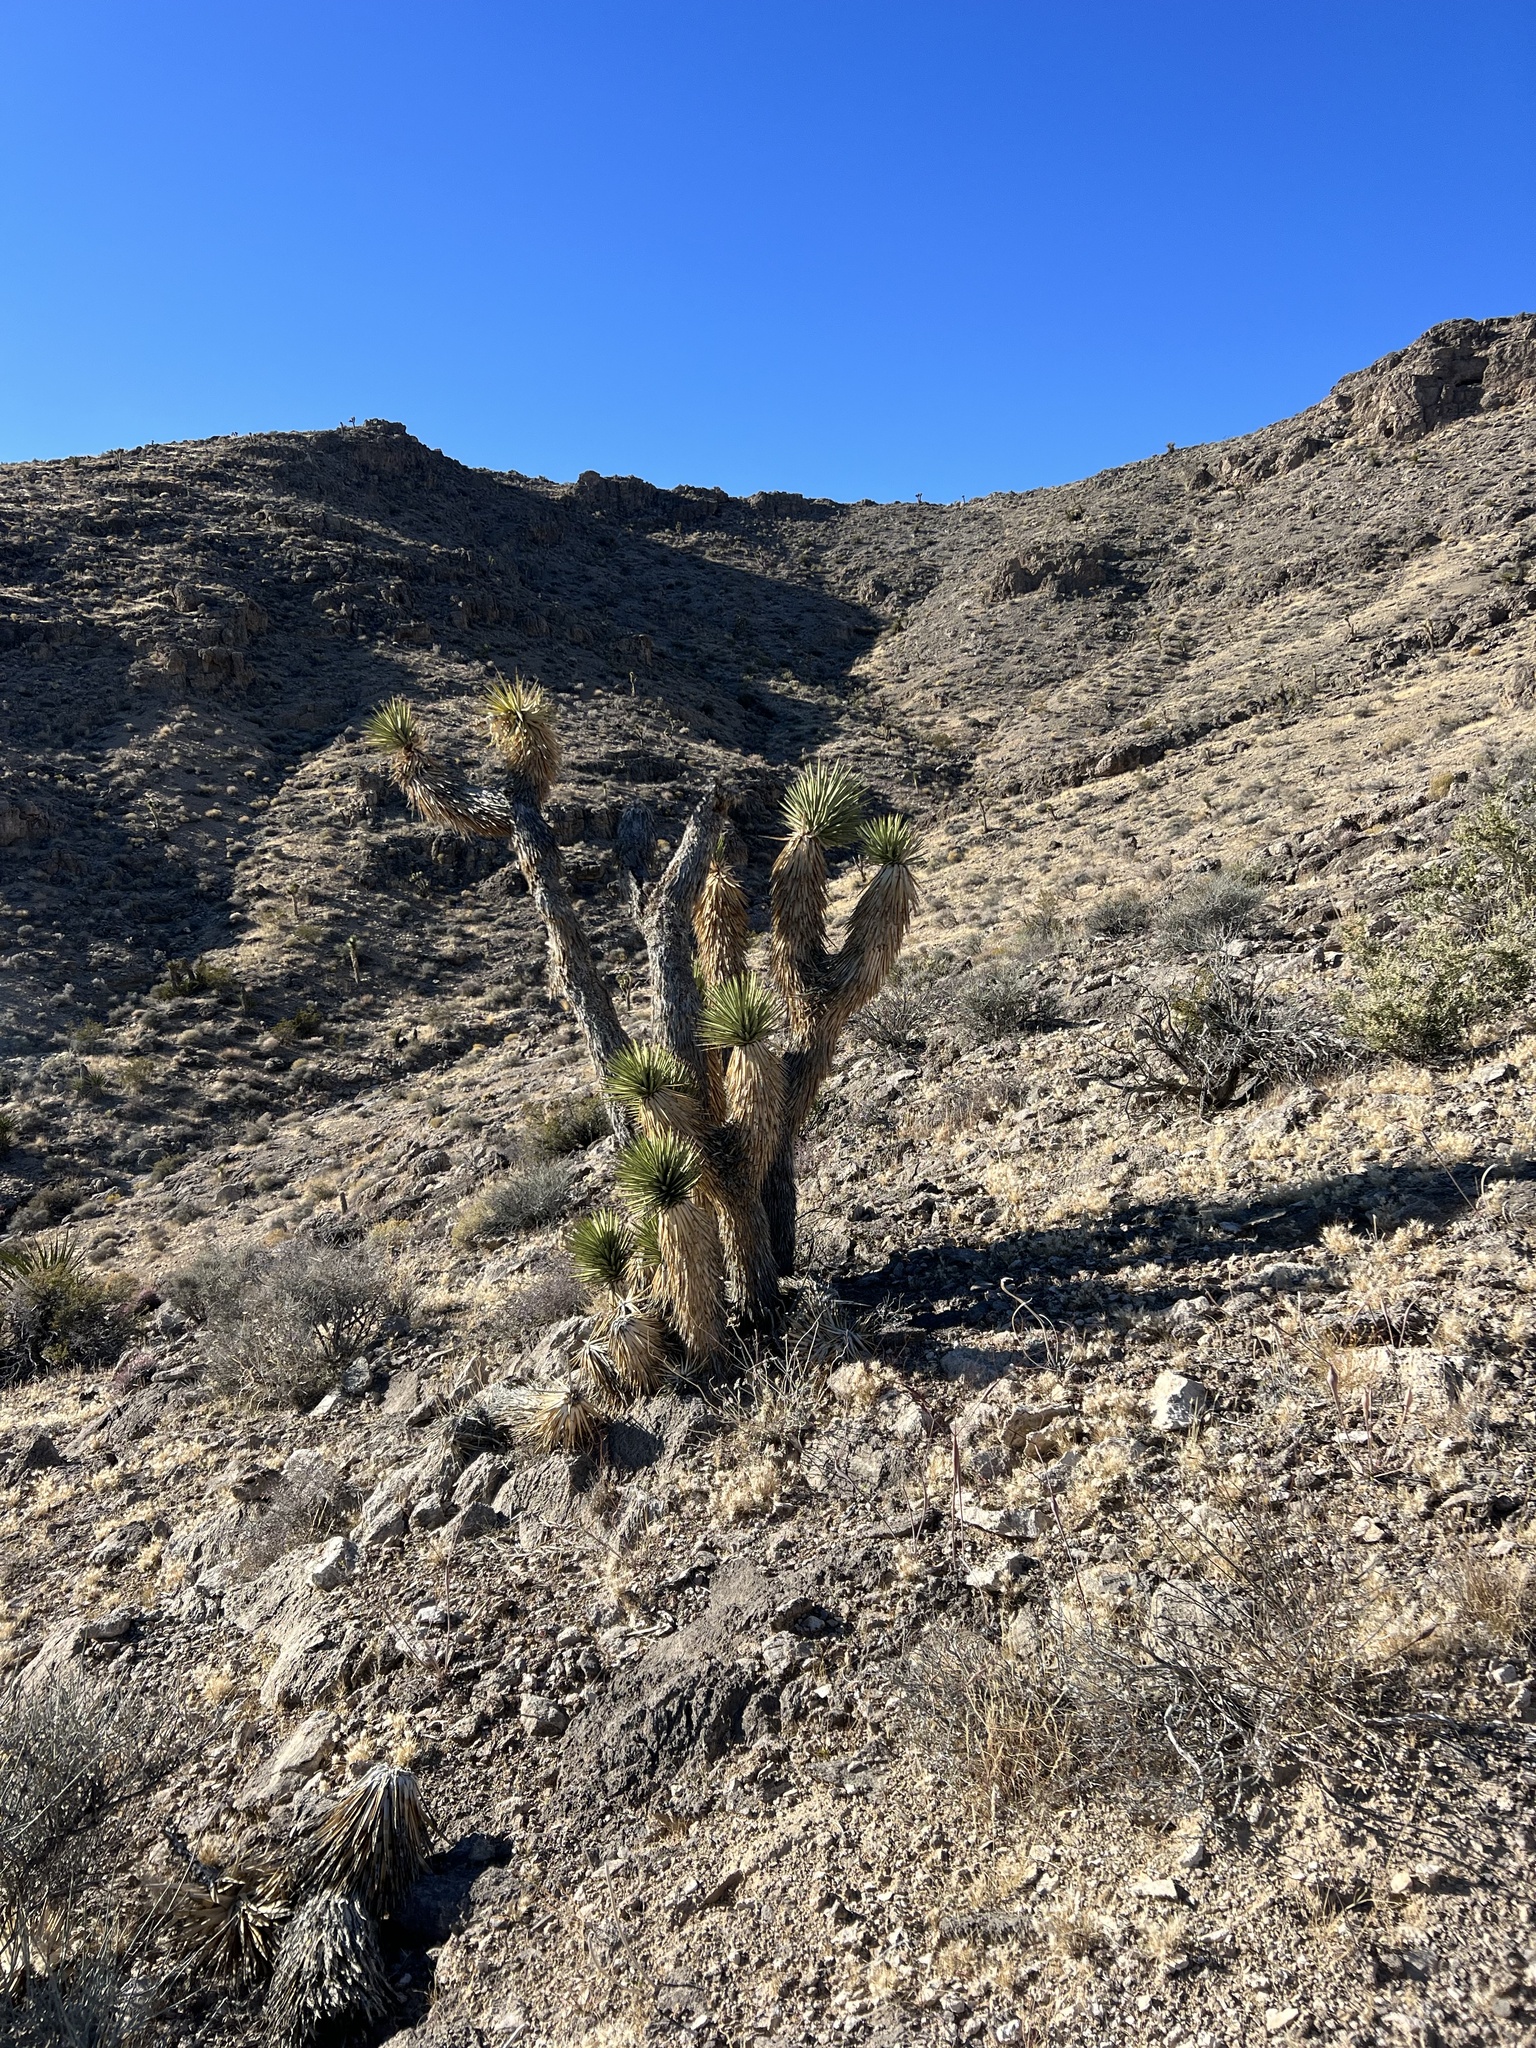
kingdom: Plantae
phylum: Tracheophyta
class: Liliopsida
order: Asparagales
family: Asparagaceae
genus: Yucca
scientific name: Yucca brevifolia
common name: Joshua tree
